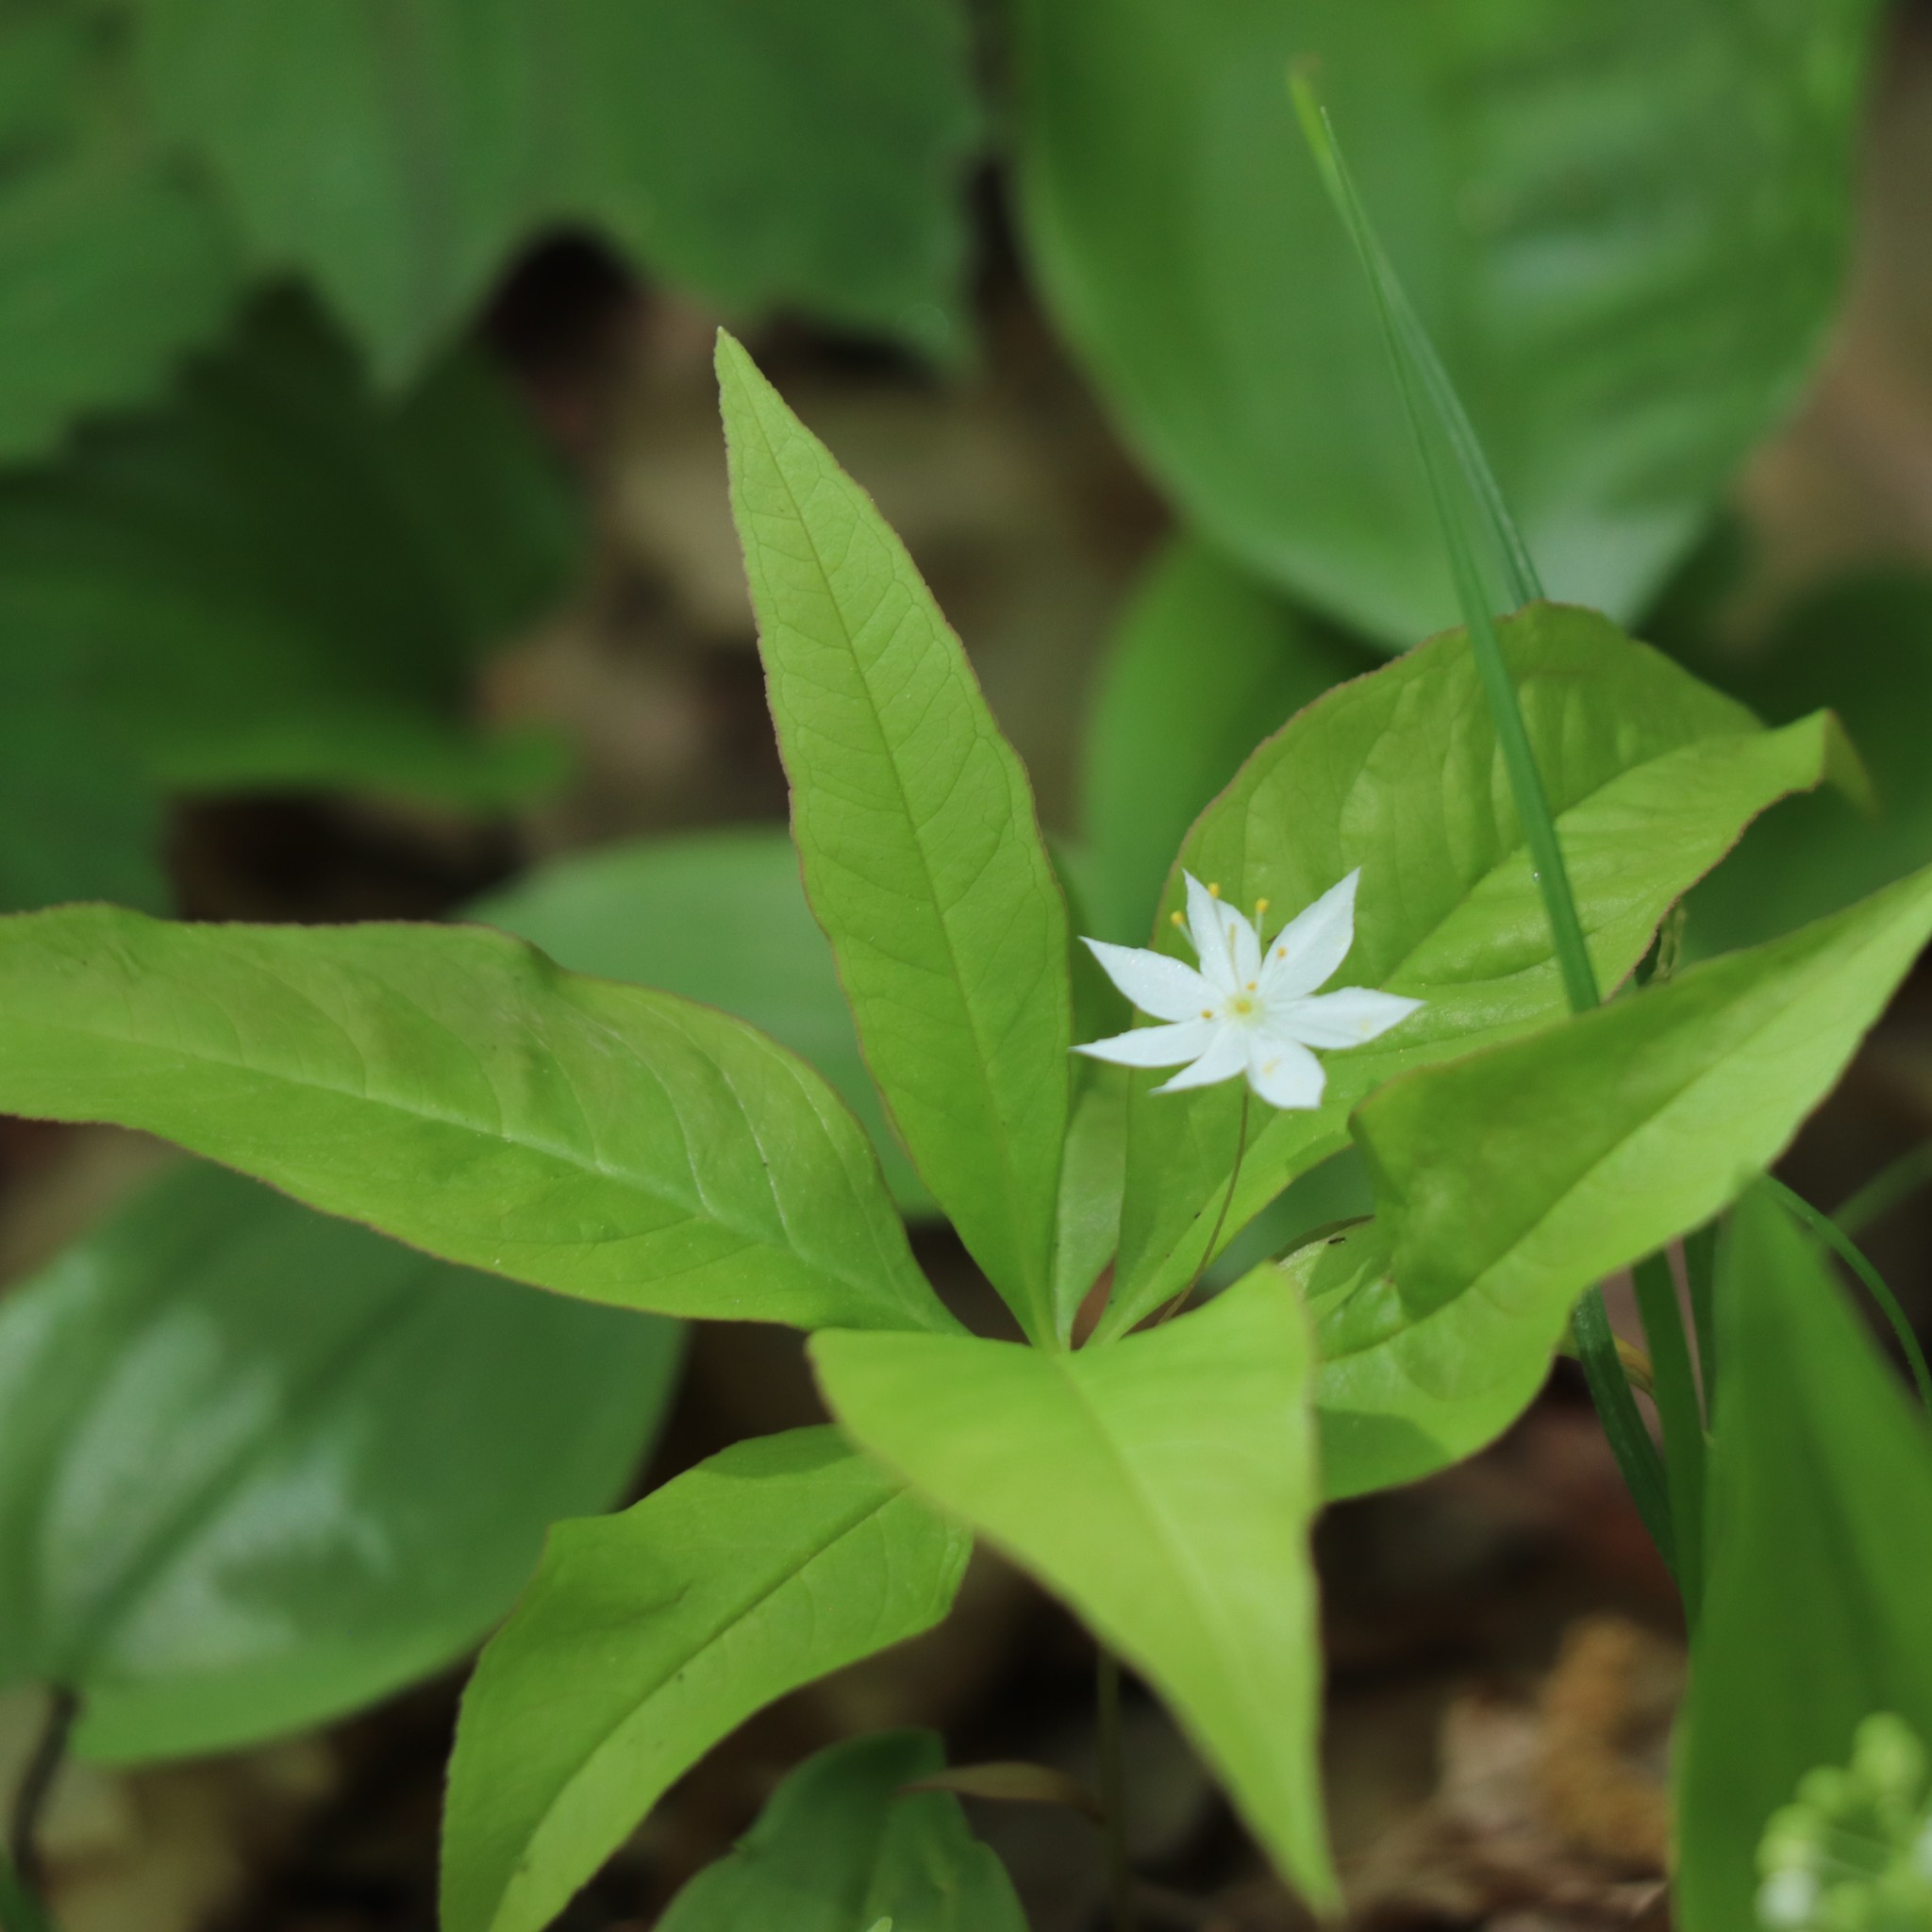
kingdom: Plantae
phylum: Tracheophyta
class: Magnoliopsida
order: Ericales
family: Primulaceae
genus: Lysimachia
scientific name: Lysimachia borealis
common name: American starflower
